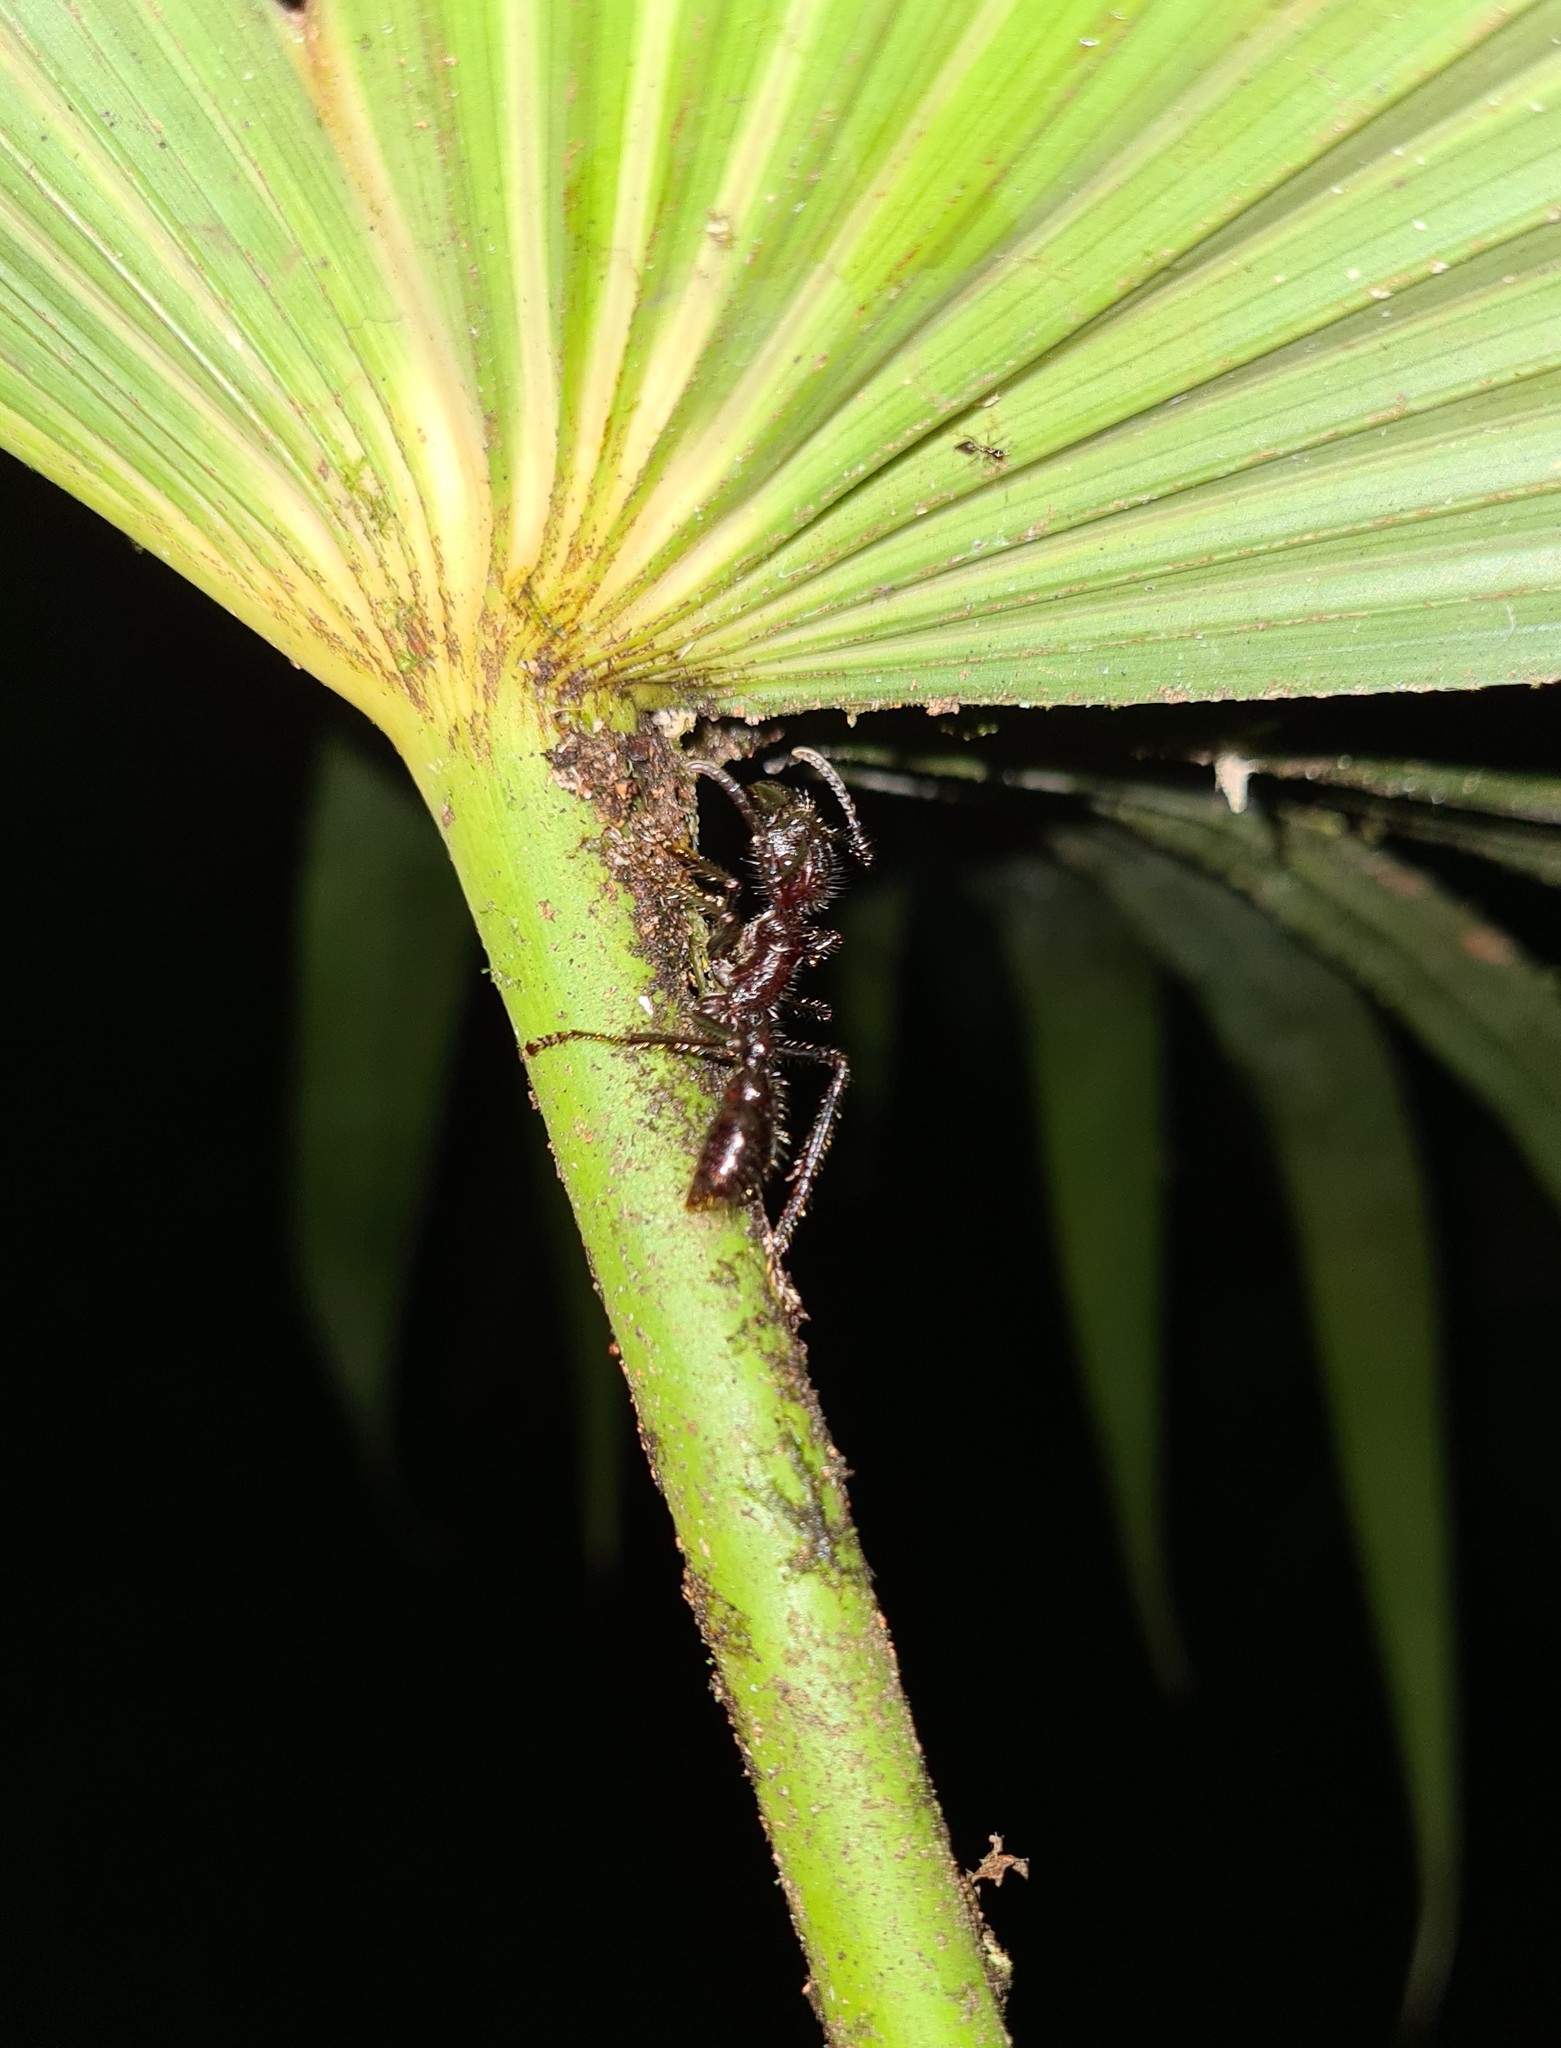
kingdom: Animalia
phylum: Arthropoda
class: Insecta
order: Hymenoptera
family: Formicidae
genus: Paraponera
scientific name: Paraponera clavata
